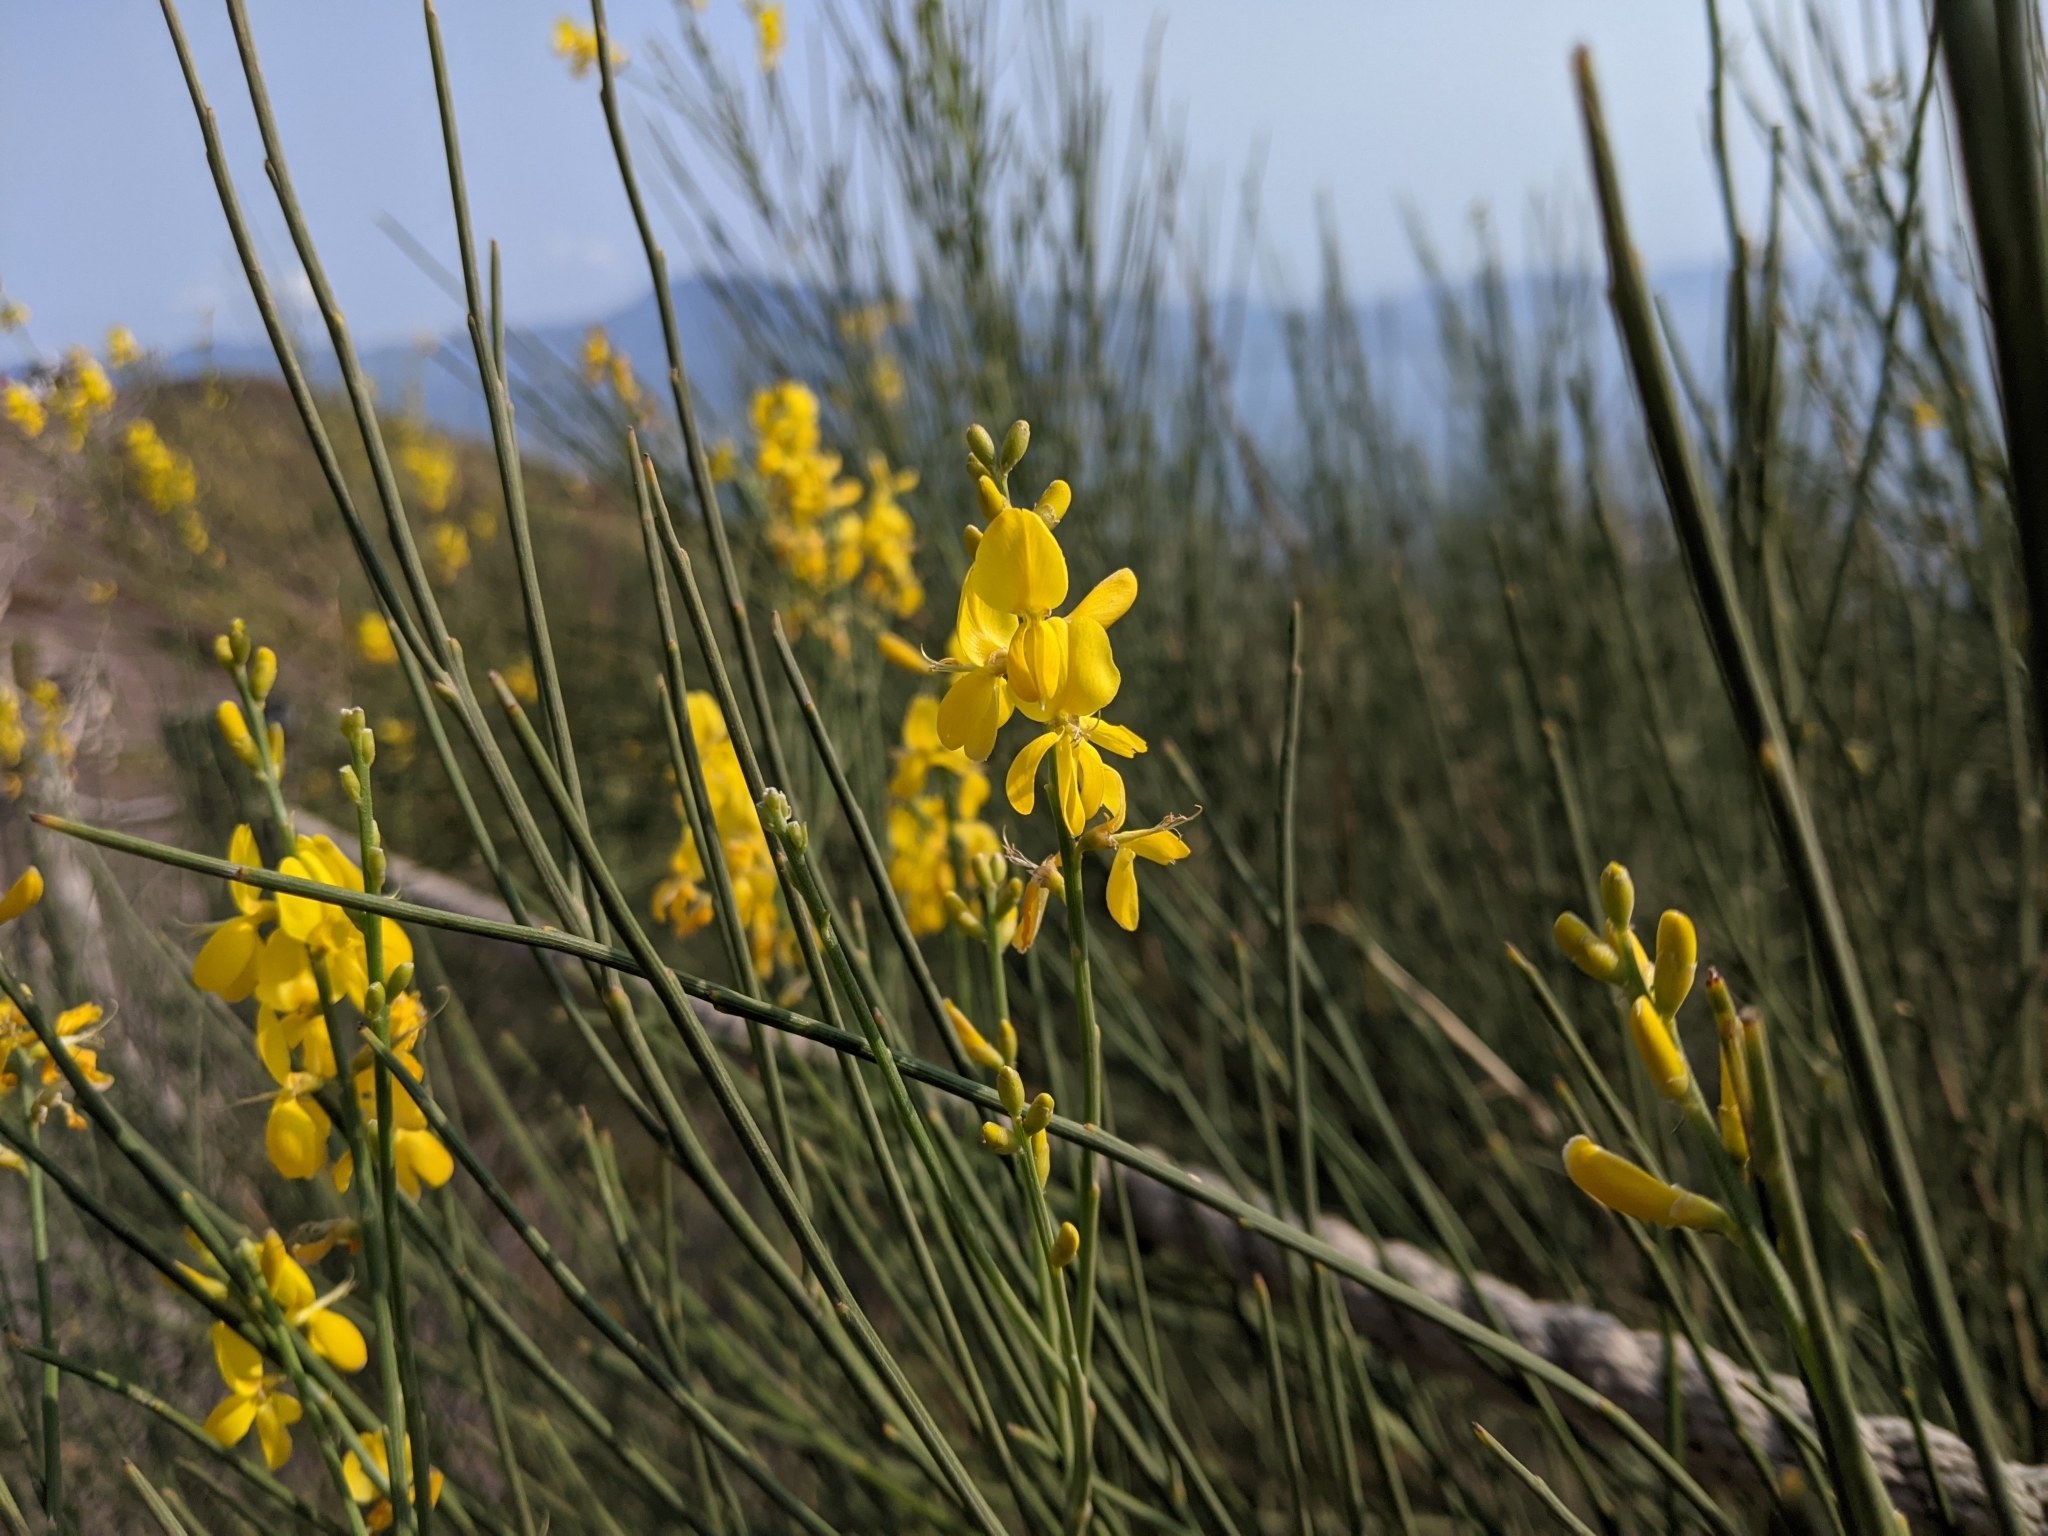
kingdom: Plantae
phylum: Tracheophyta
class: Magnoliopsida
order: Fabales
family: Fabaceae
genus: Spartium
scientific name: Spartium junceum
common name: Spanish broom
